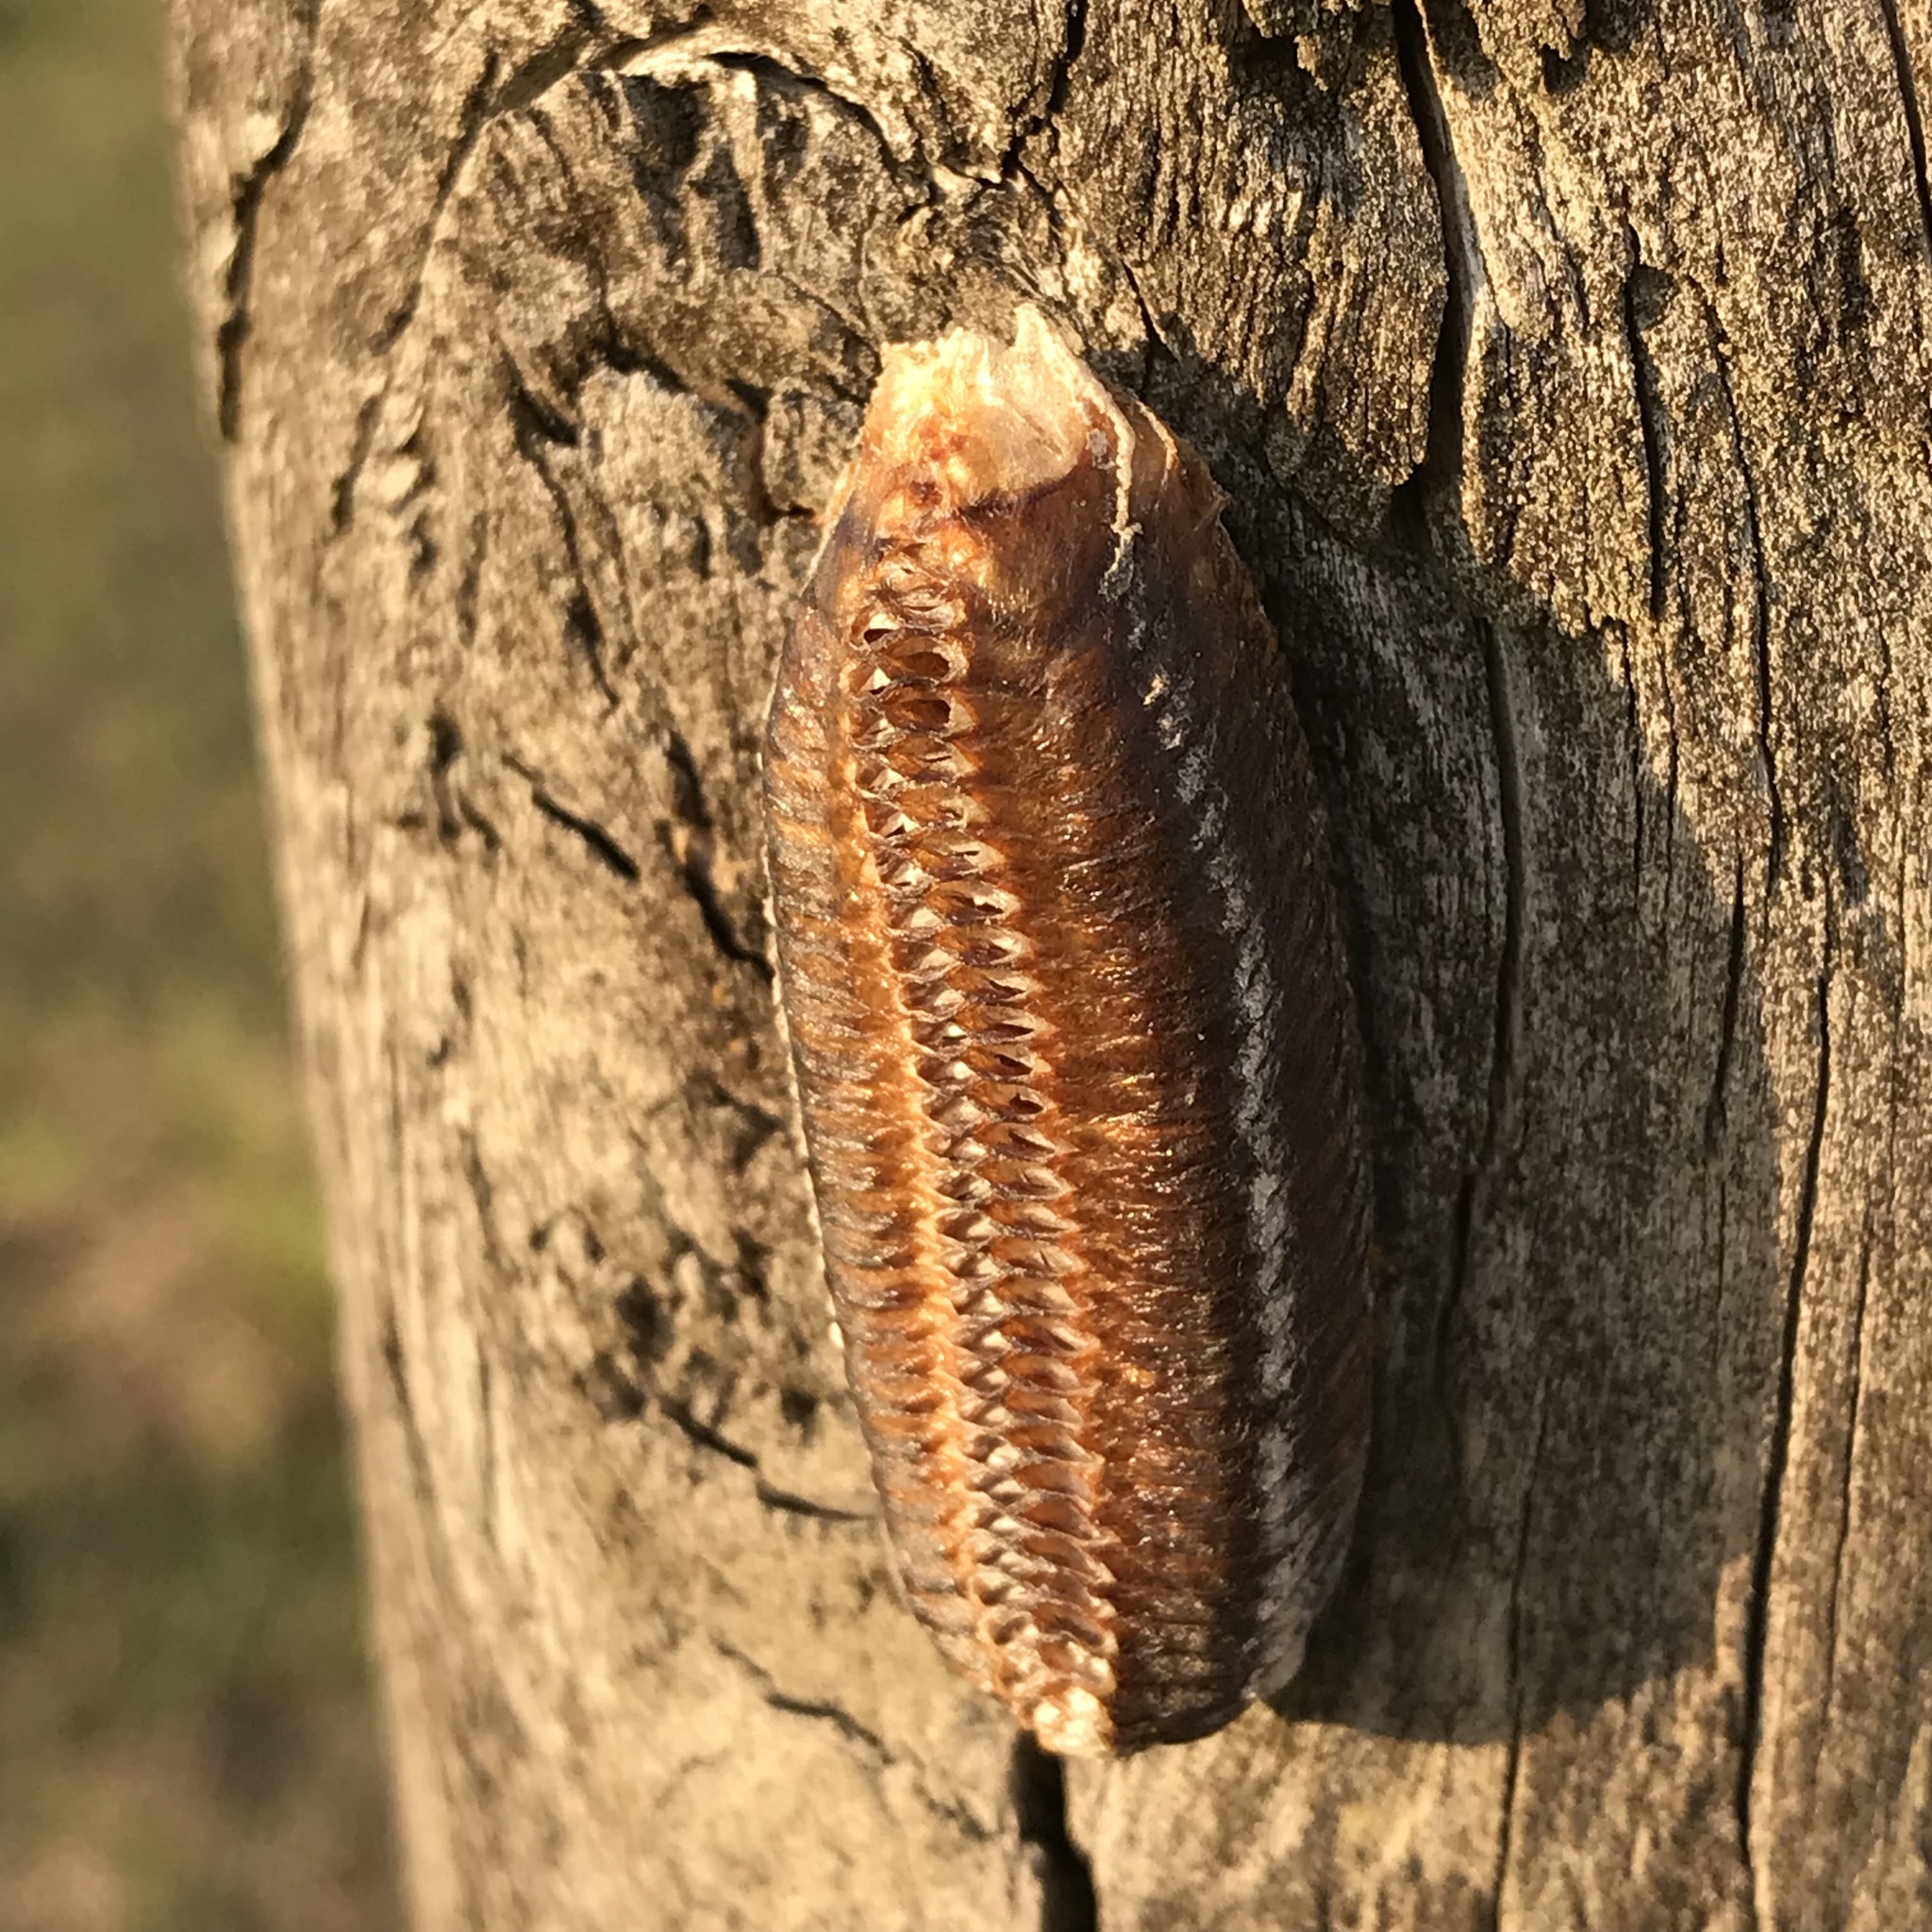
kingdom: Animalia
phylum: Arthropoda
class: Insecta
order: Mantodea
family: Mantidae
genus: Stagmomantis
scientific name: Stagmomantis limbata
